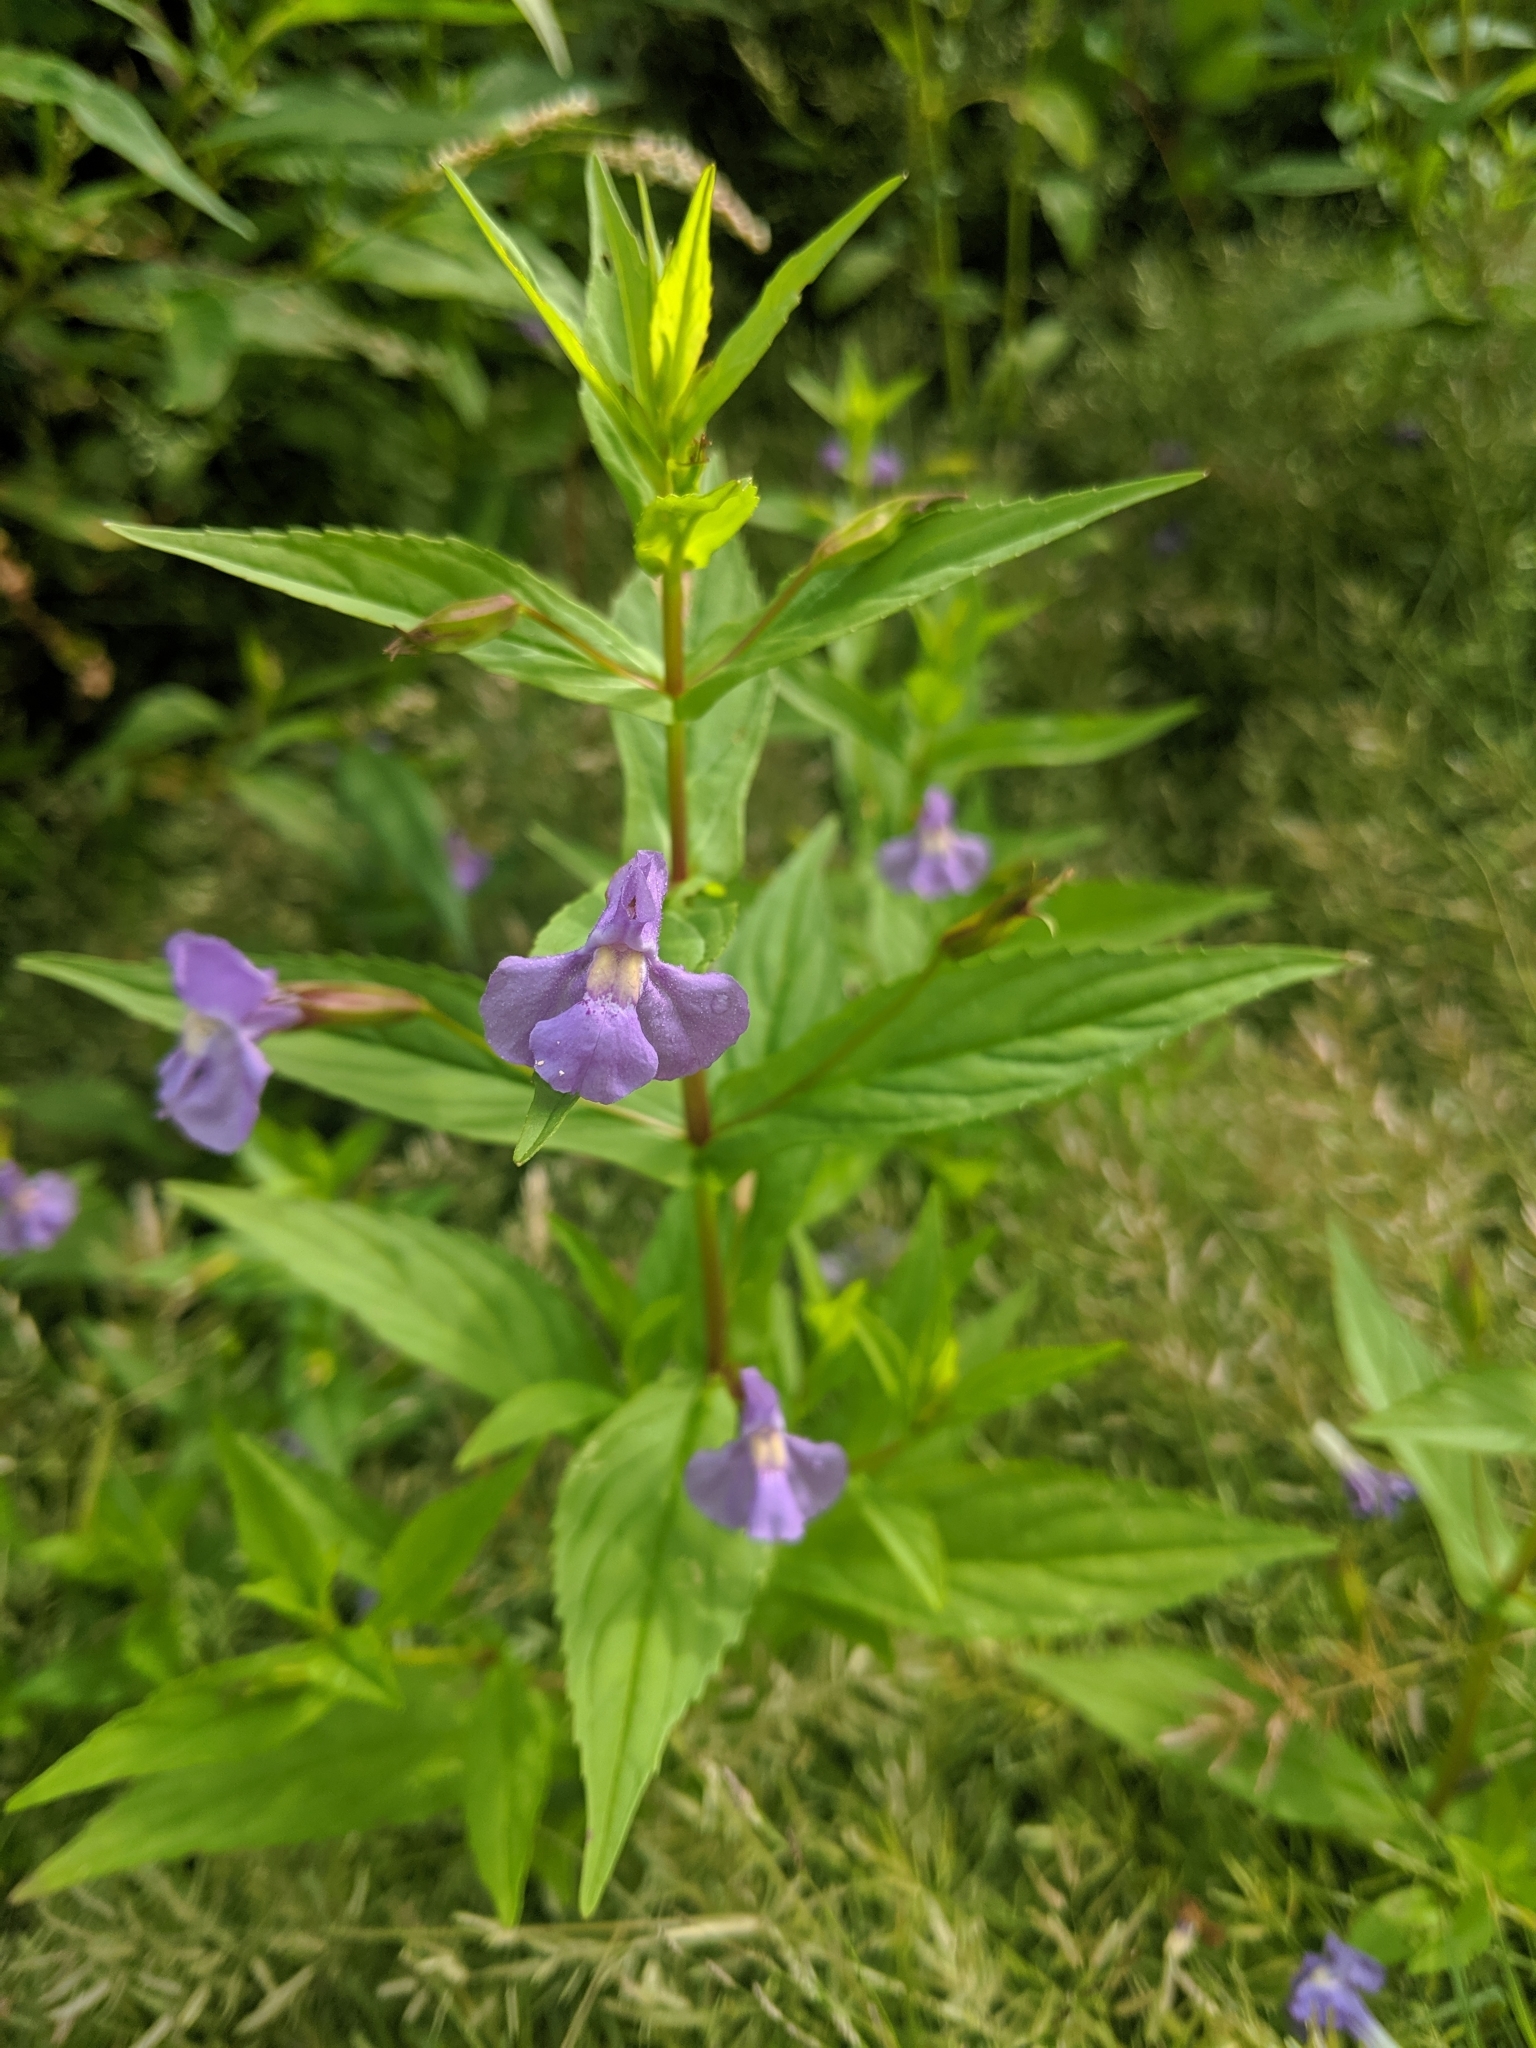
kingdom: Plantae
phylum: Tracheophyta
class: Magnoliopsida
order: Lamiales
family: Phrymaceae
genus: Mimulus
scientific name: Mimulus ringens
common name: Allegheny monkeyflower
